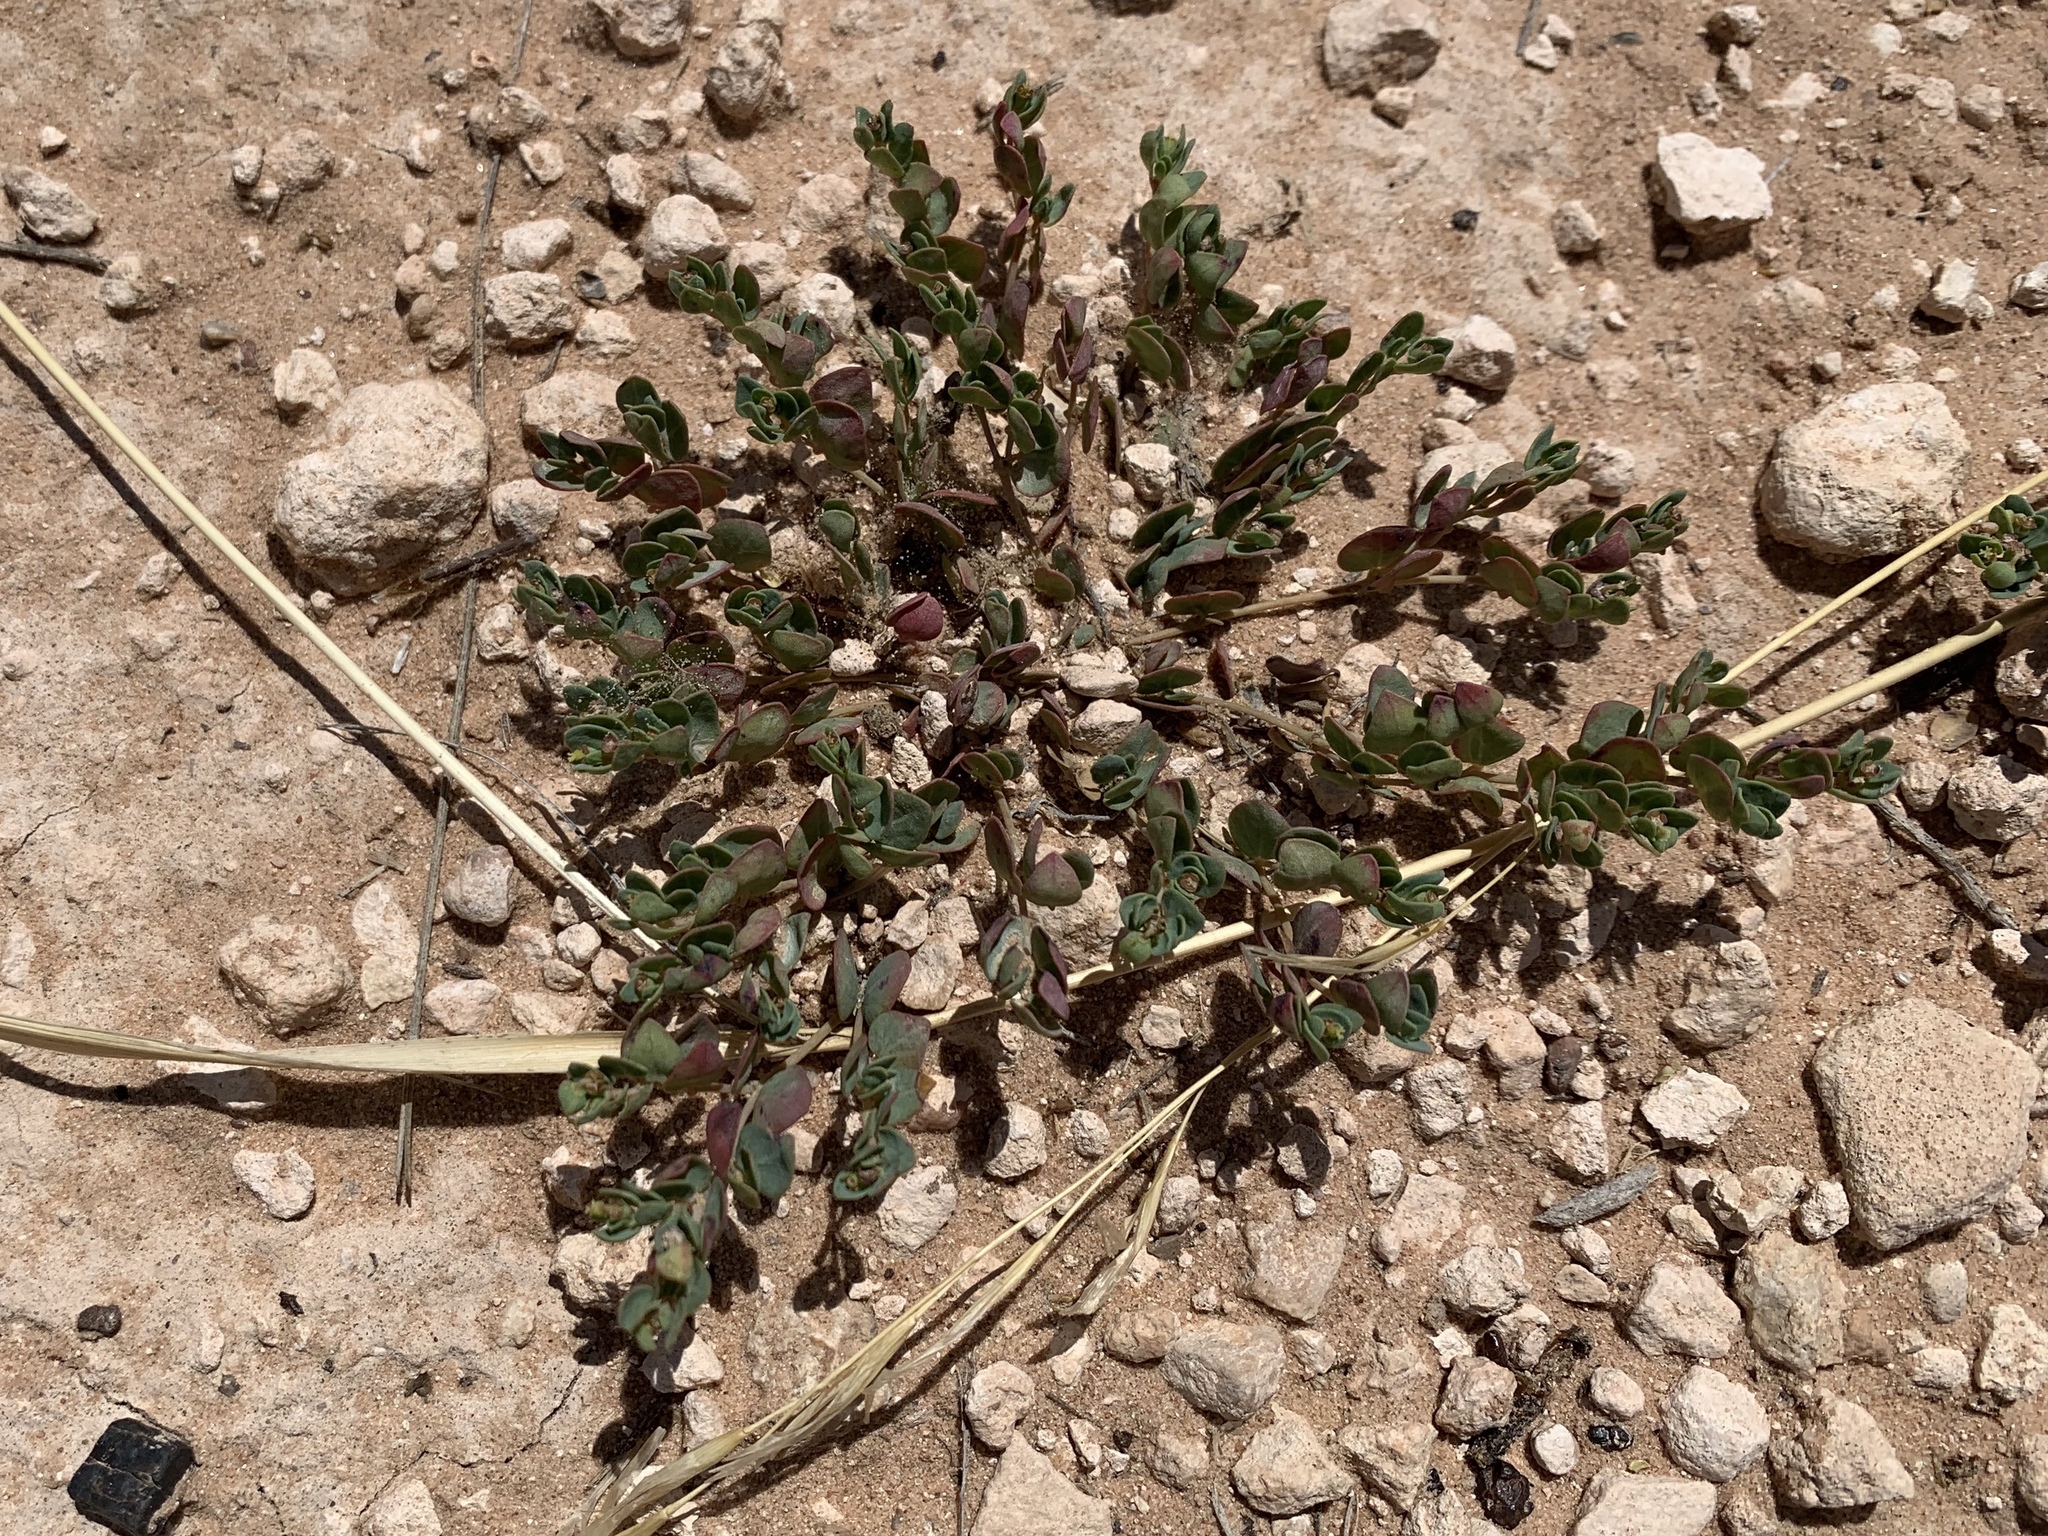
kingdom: Plantae
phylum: Tracheophyta
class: Magnoliopsida
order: Malpighiales
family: Euphorbiaceae
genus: Euphorbia
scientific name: Euphorbia fendleri
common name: Fendler's euphorbia
